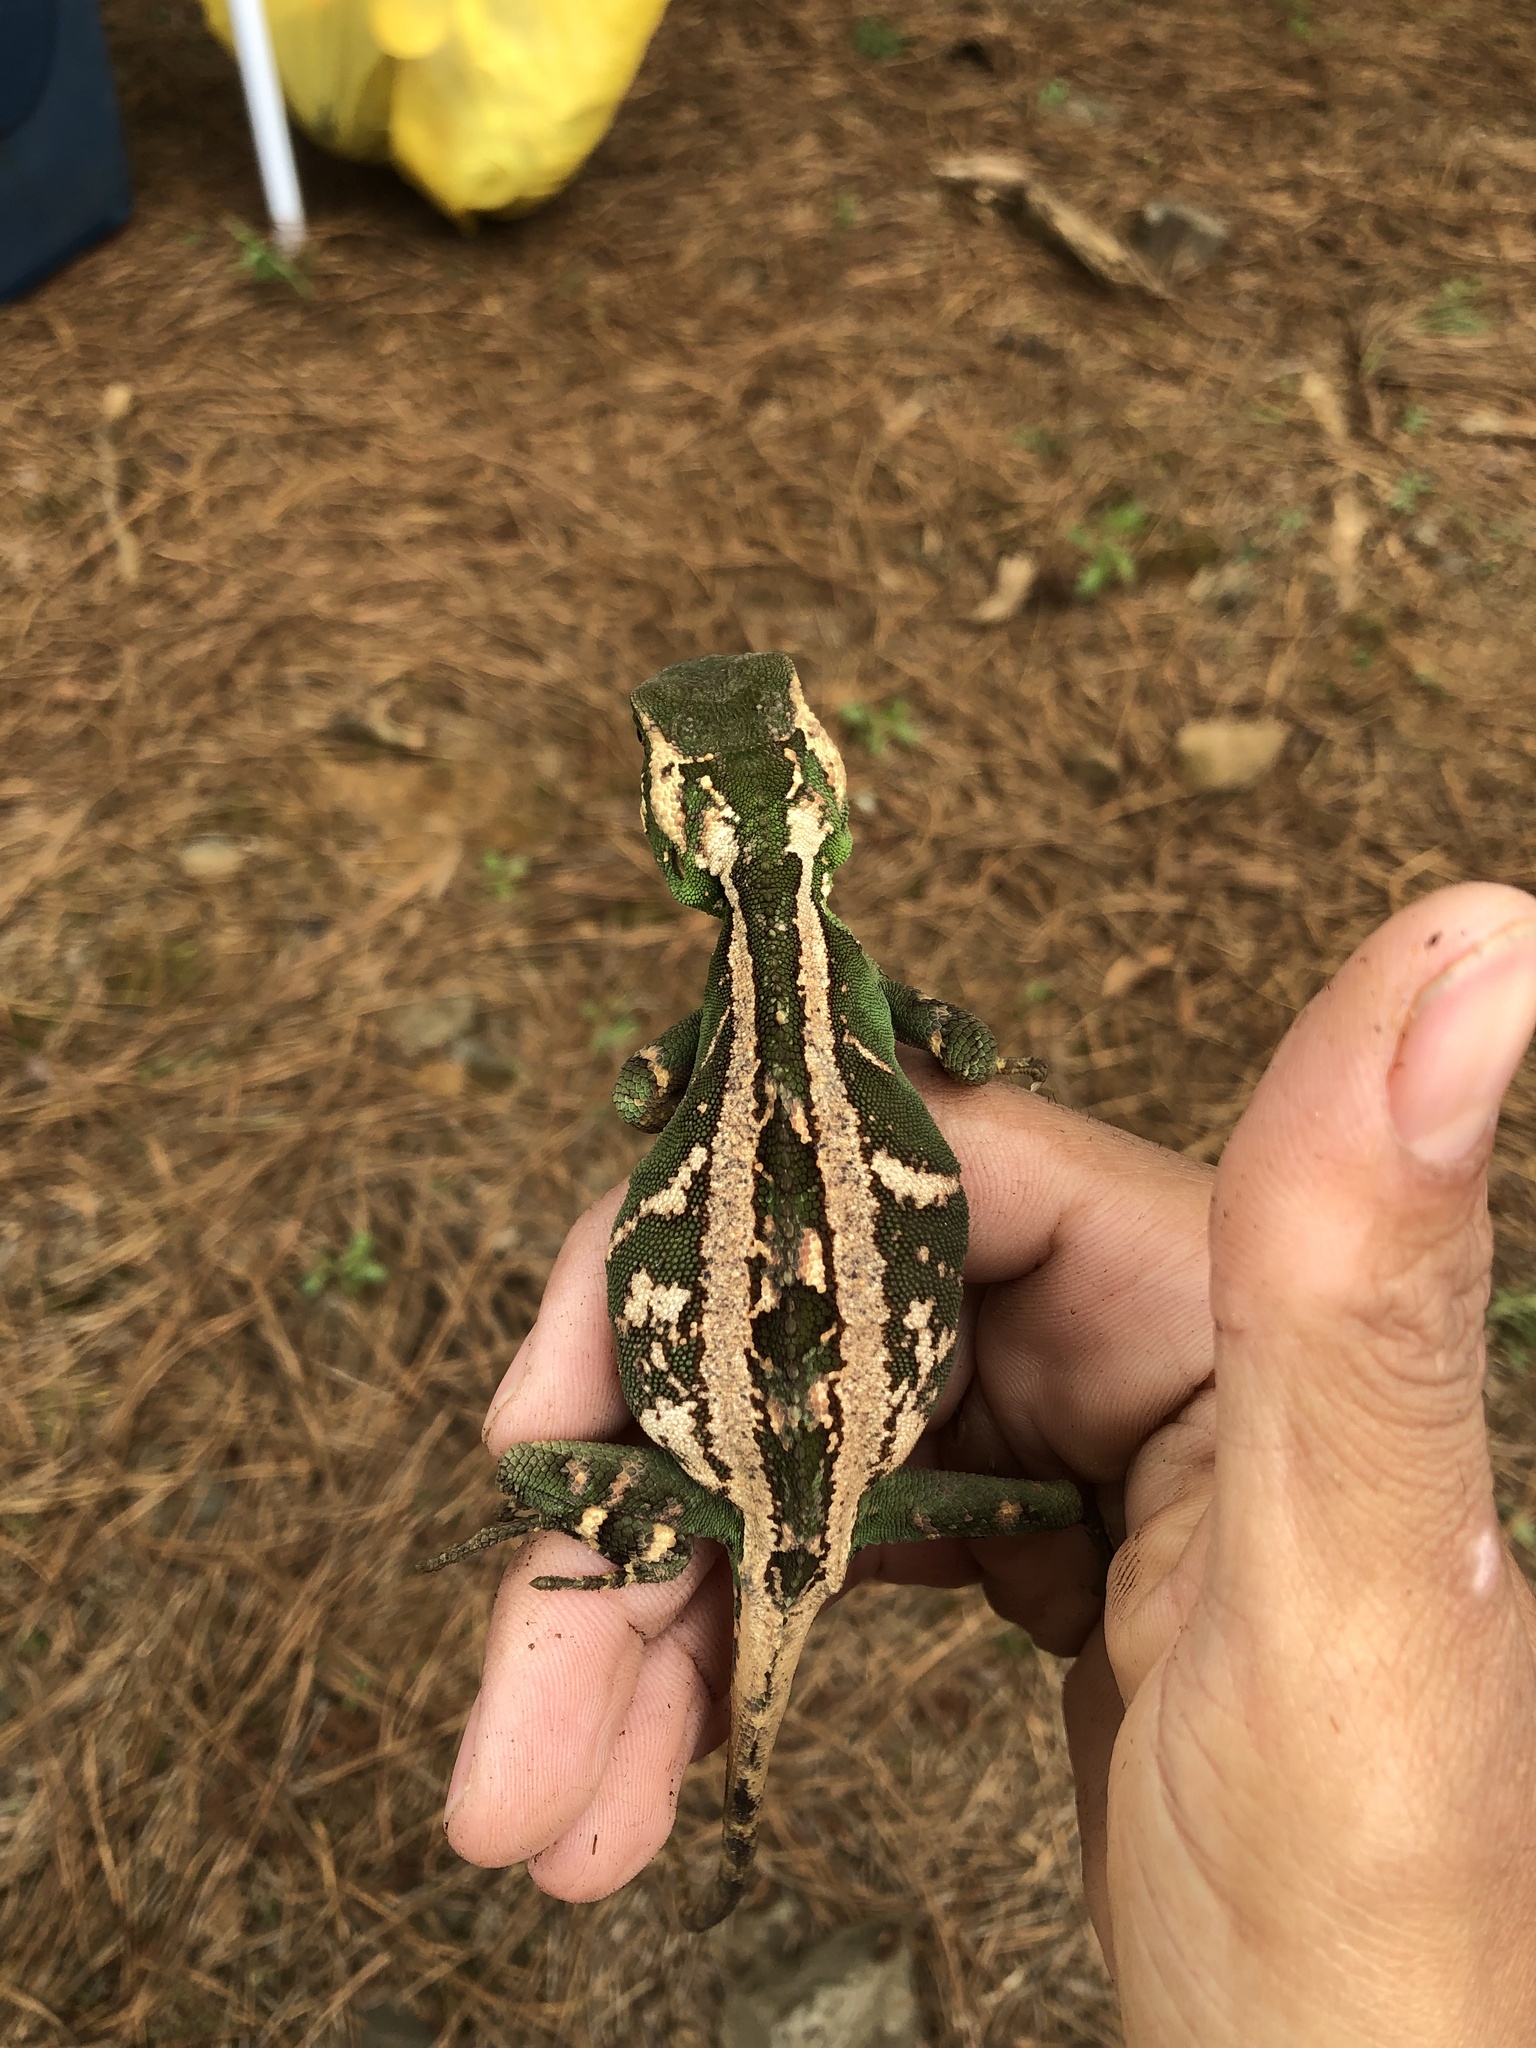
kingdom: Animalia
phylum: Chordata
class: Squamata
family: Leiosauridae
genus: Enyalius
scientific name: Enyalius iheringii
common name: Ihering's fathead anole
